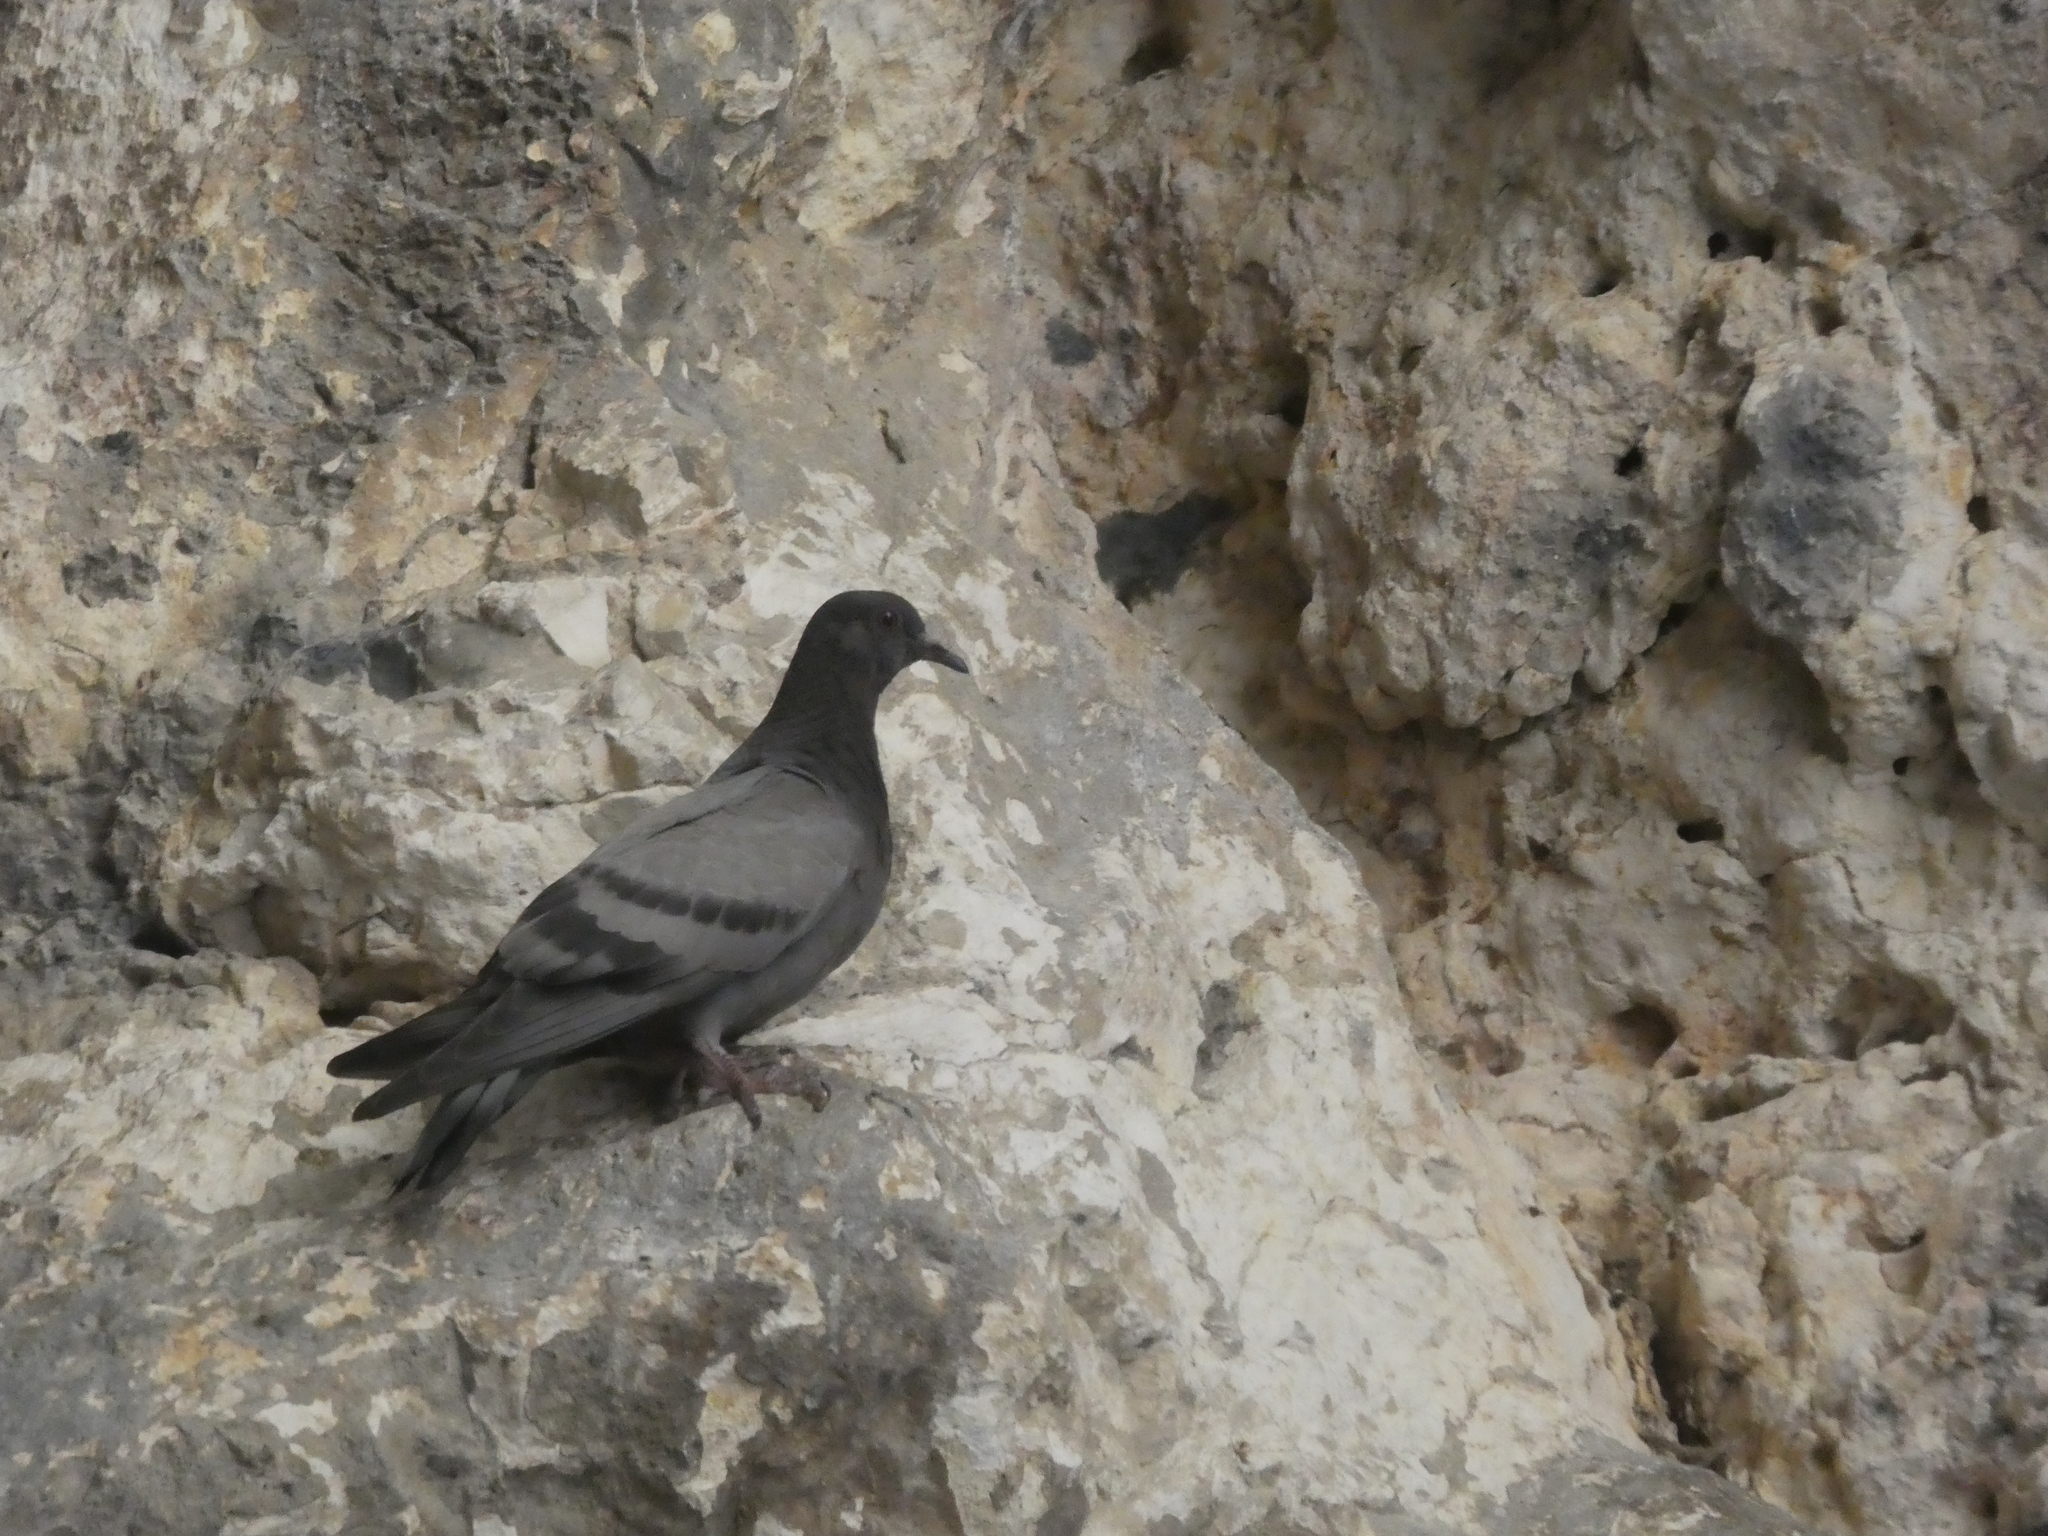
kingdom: Animalia
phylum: Chordata
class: Aves
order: Columbiformes
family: Columbidae
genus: Columba
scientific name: Columba livia
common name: Rock pigeon
